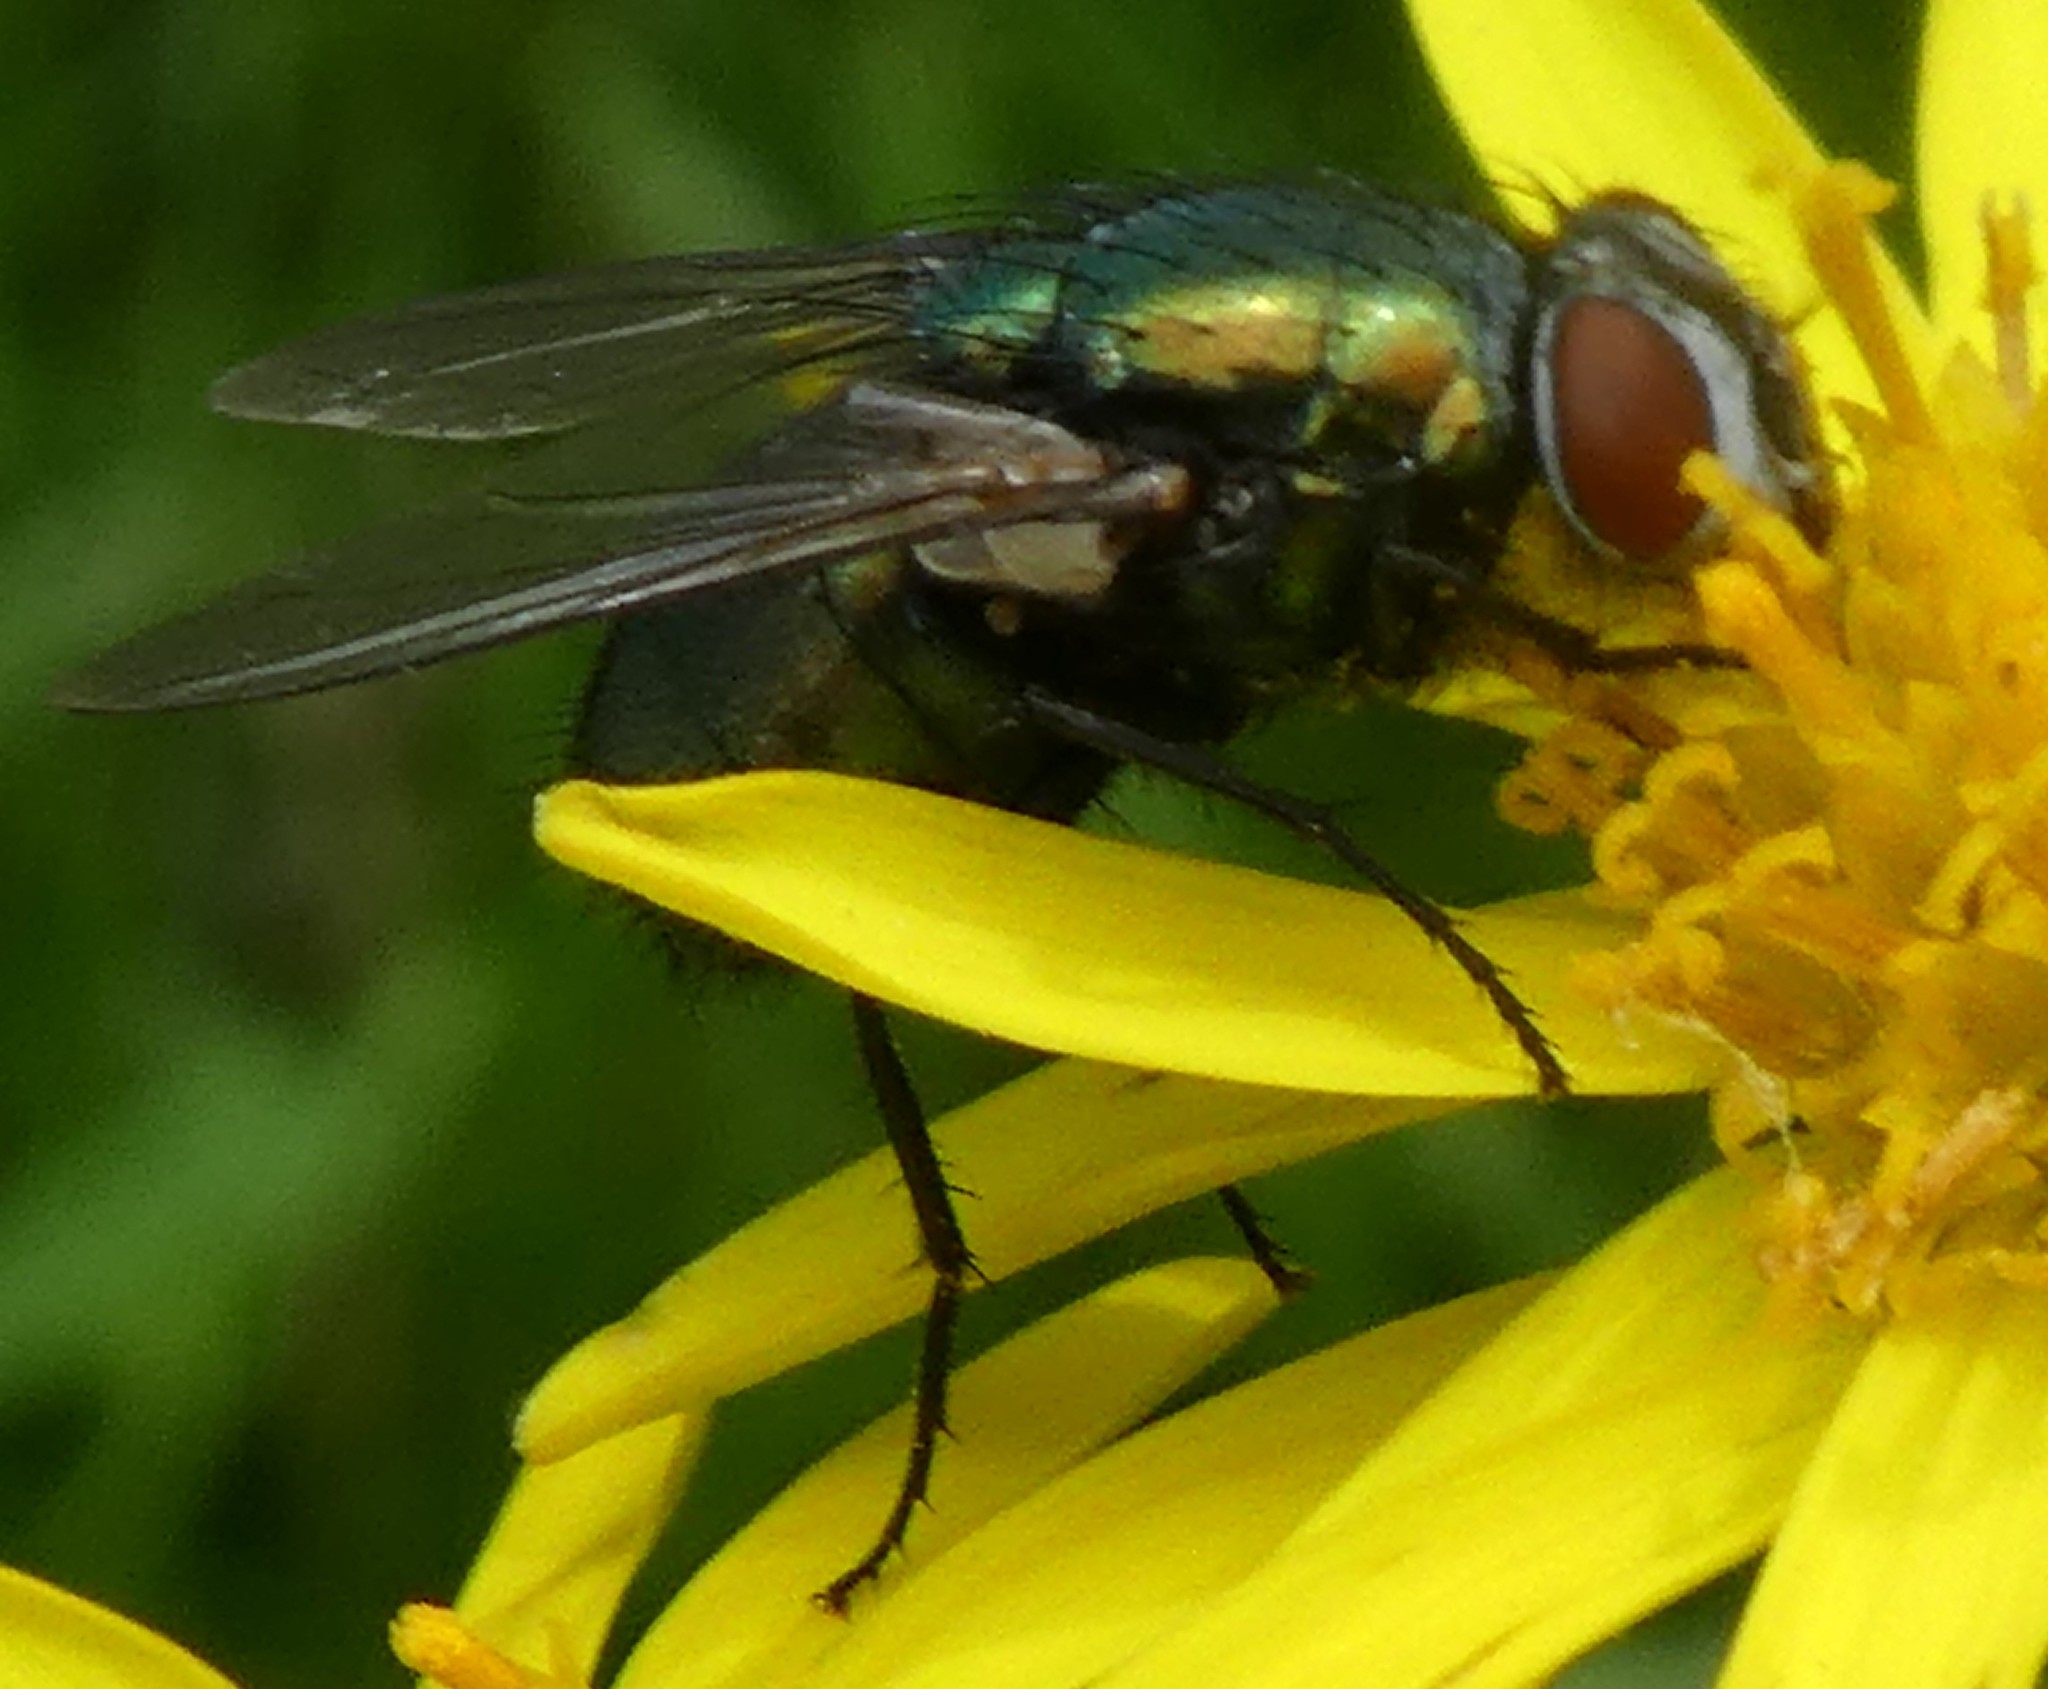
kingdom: Animalia
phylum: Arthropoda
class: Insecta
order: Diptera
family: Calliphoridae
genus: Lucilia
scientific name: Lucilia
